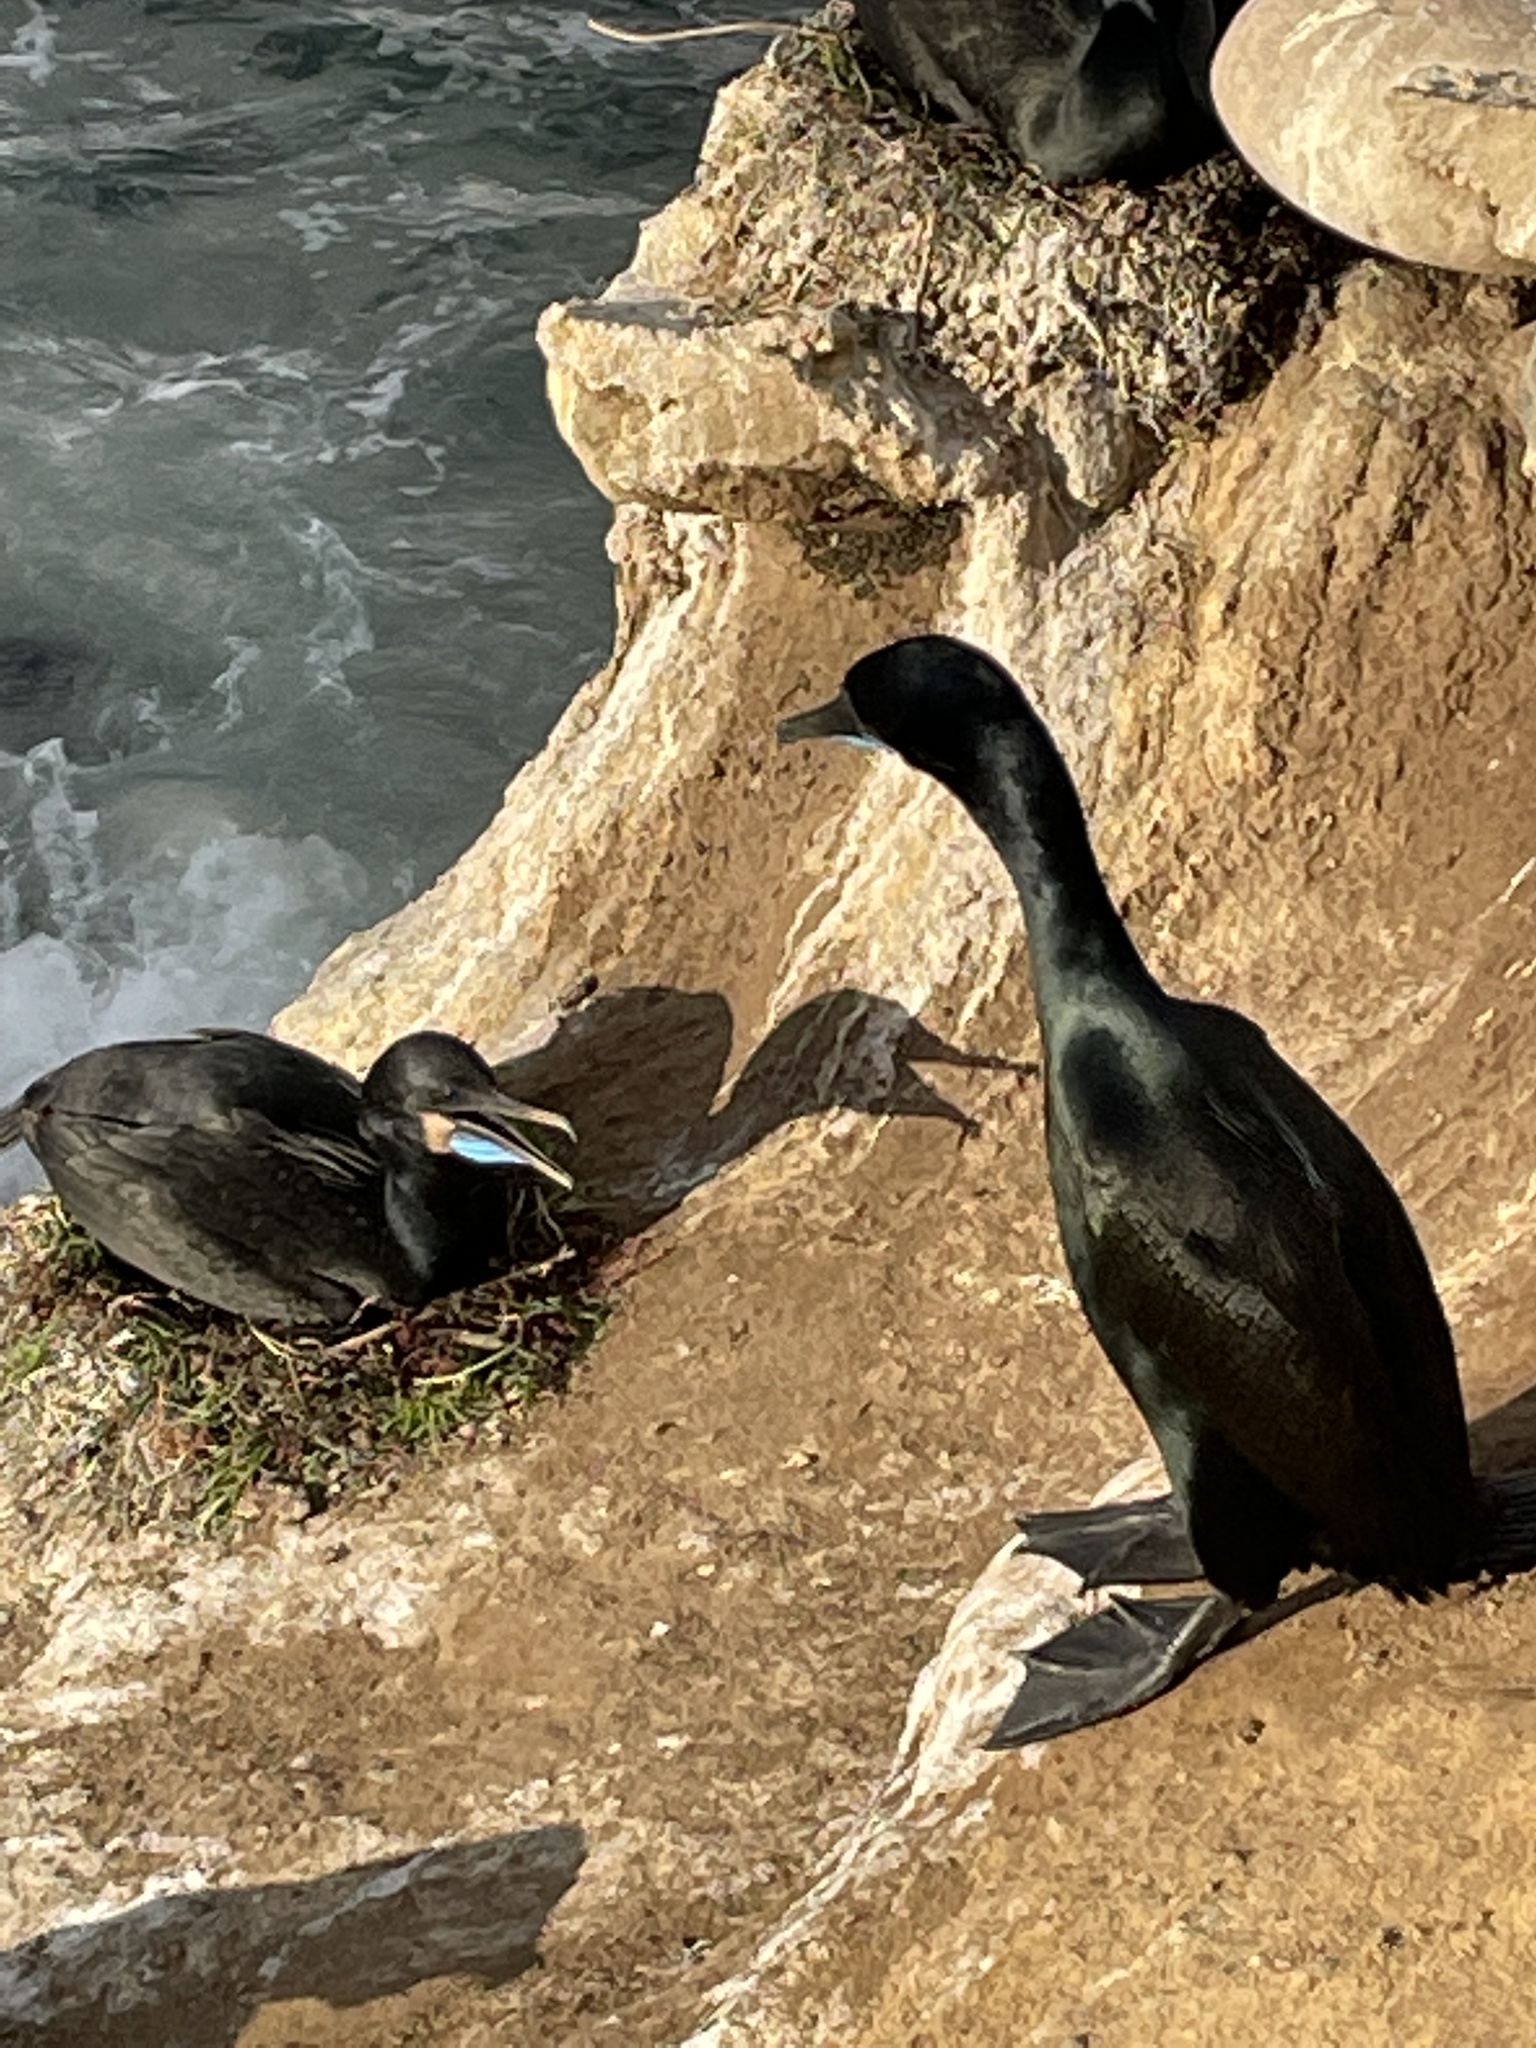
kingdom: Animalia
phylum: Chordata
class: Aves
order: Suliformes
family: Phalacrocoracidae
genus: Urile
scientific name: Urile penicillatus
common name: Brandt's cormorant
